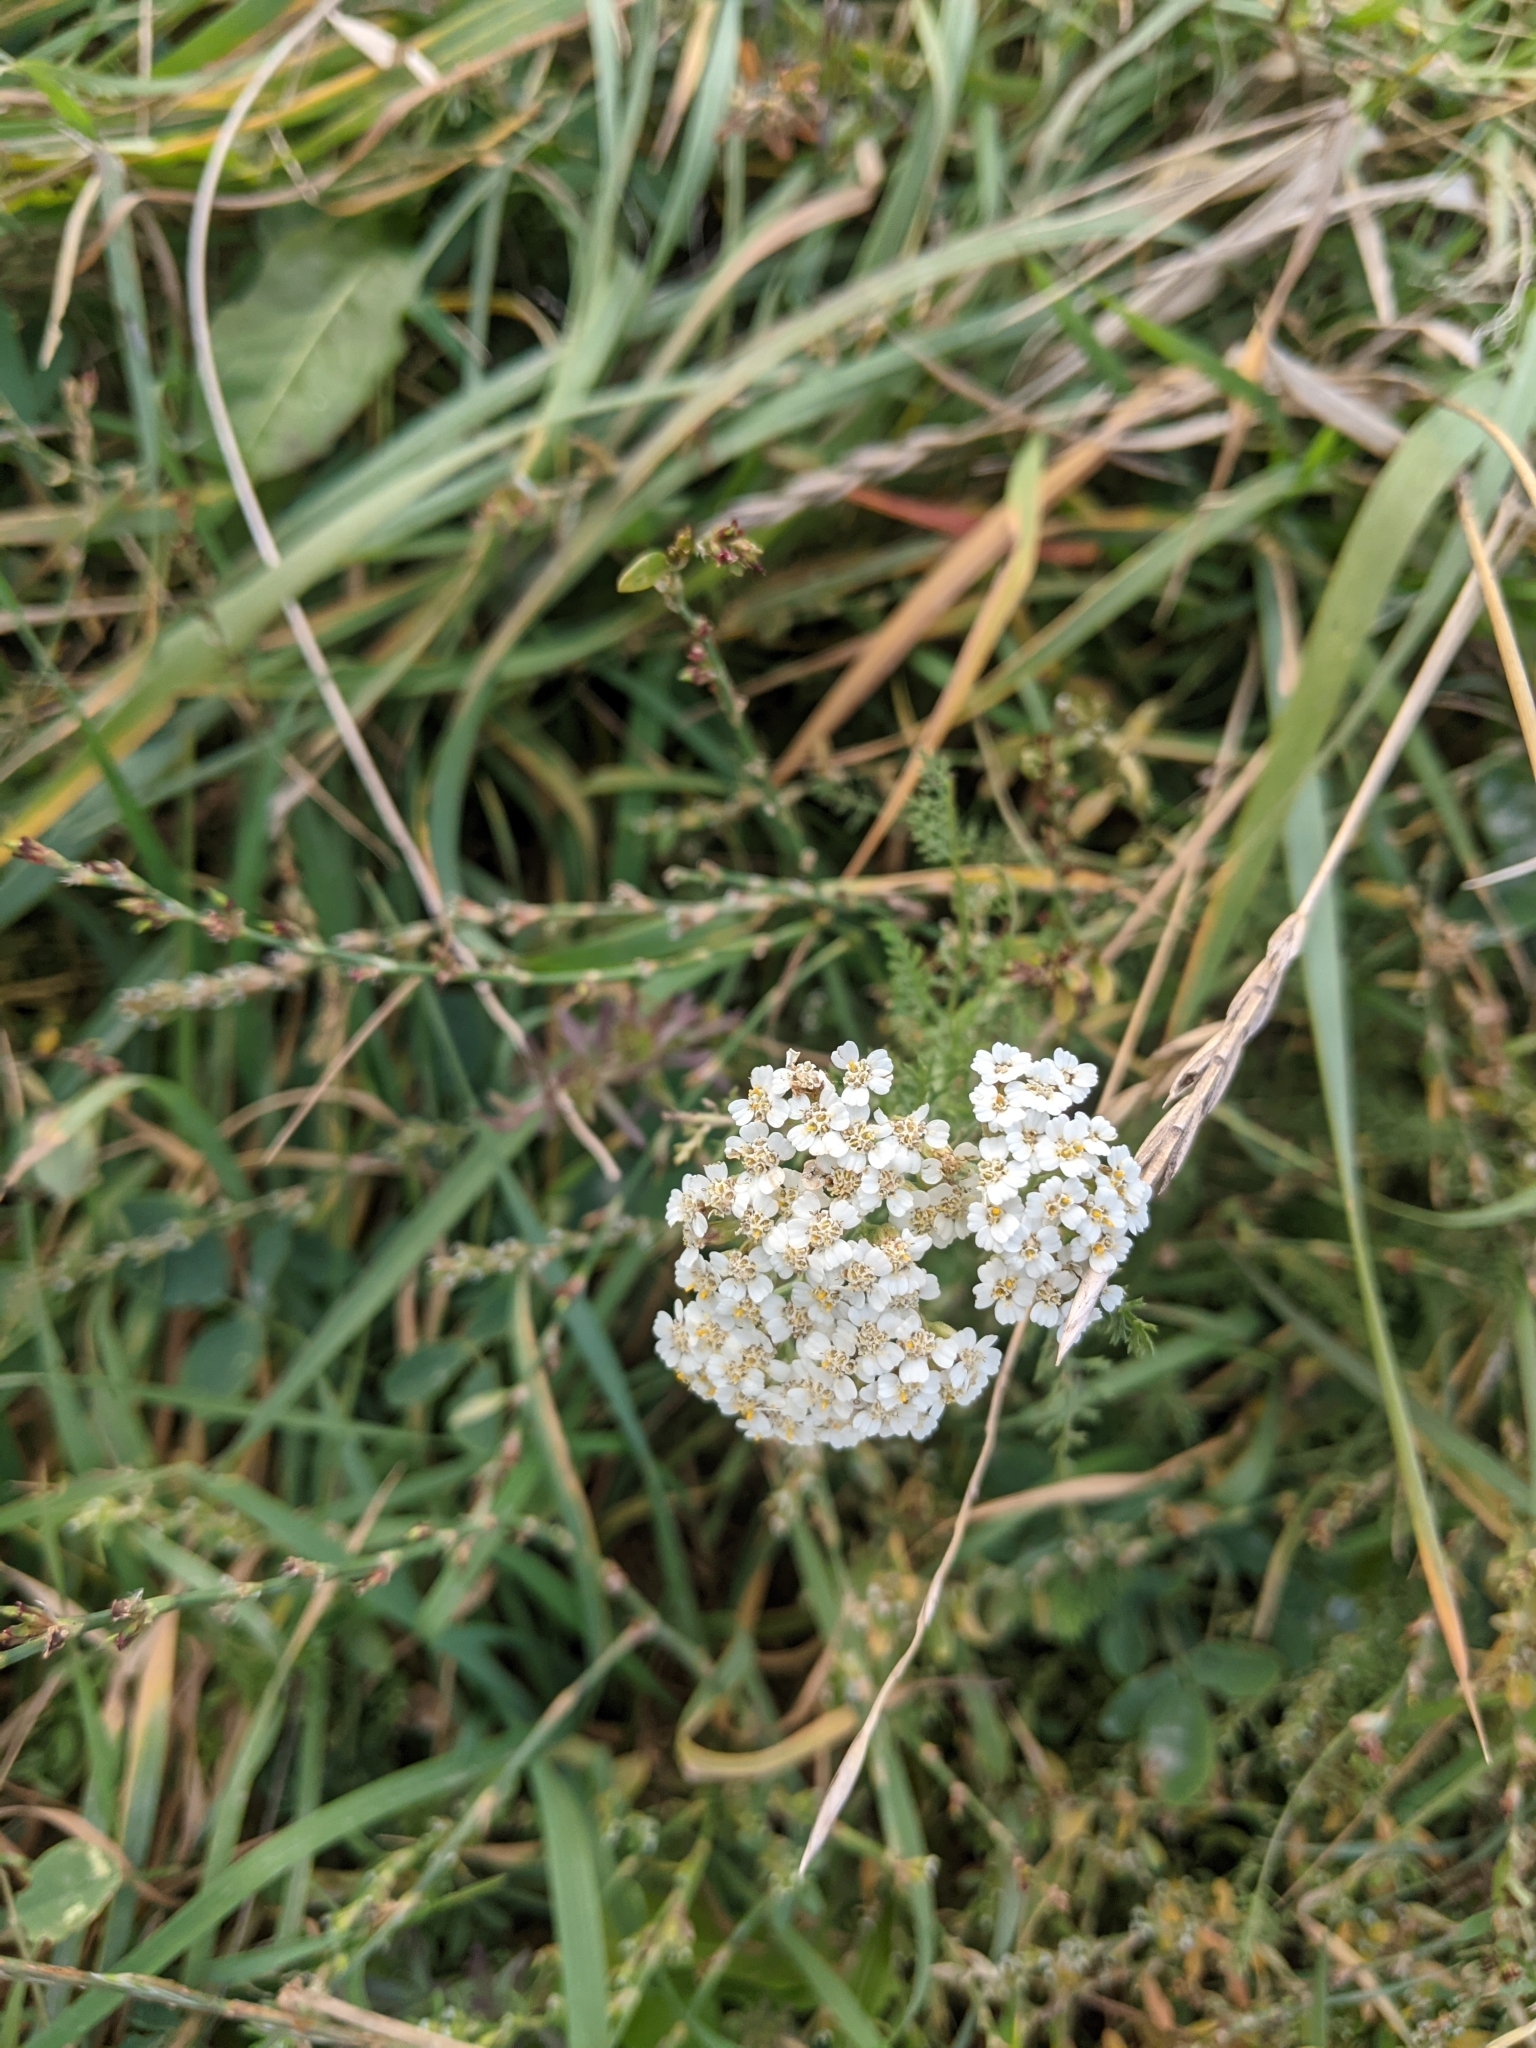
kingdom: Plantae
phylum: Tracheophyta
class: Magnoliopsida
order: Asterales
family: Asteraceae
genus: Achillea
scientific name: Achillea millefolium
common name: Yarrow
